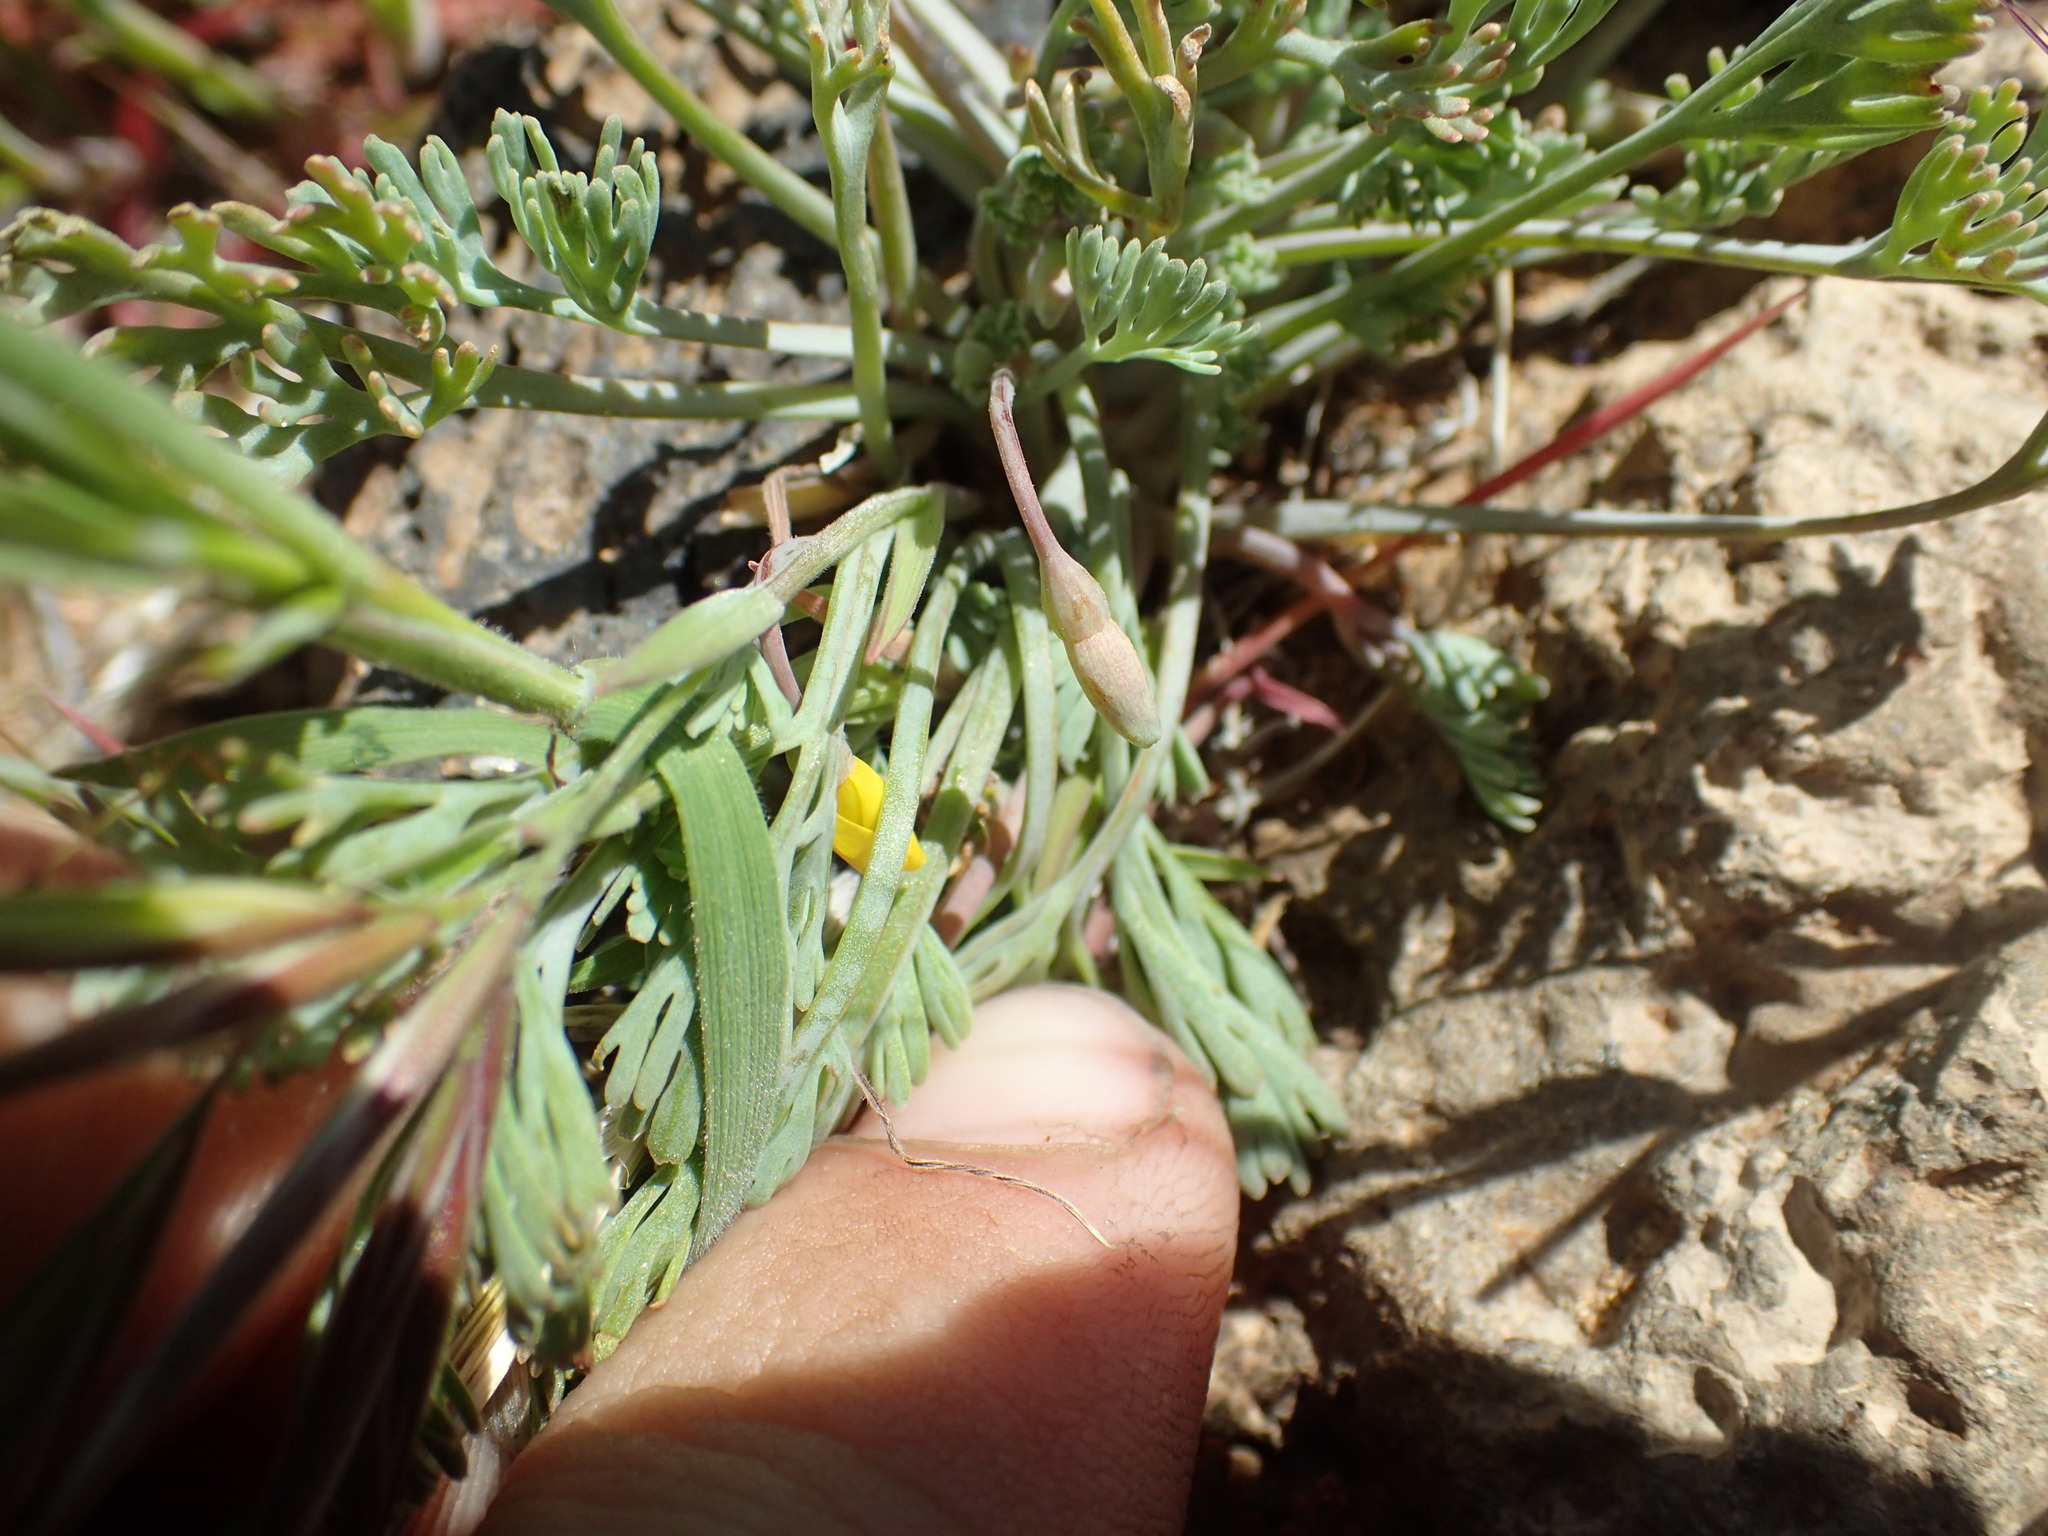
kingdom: Plantae
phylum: Tracheophyta
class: Magnoliopsida
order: Ranunculales
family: Papaveraceae
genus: Eschscholzia
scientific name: Eschscholzia minutiflora
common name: Small-flower california-poppy
